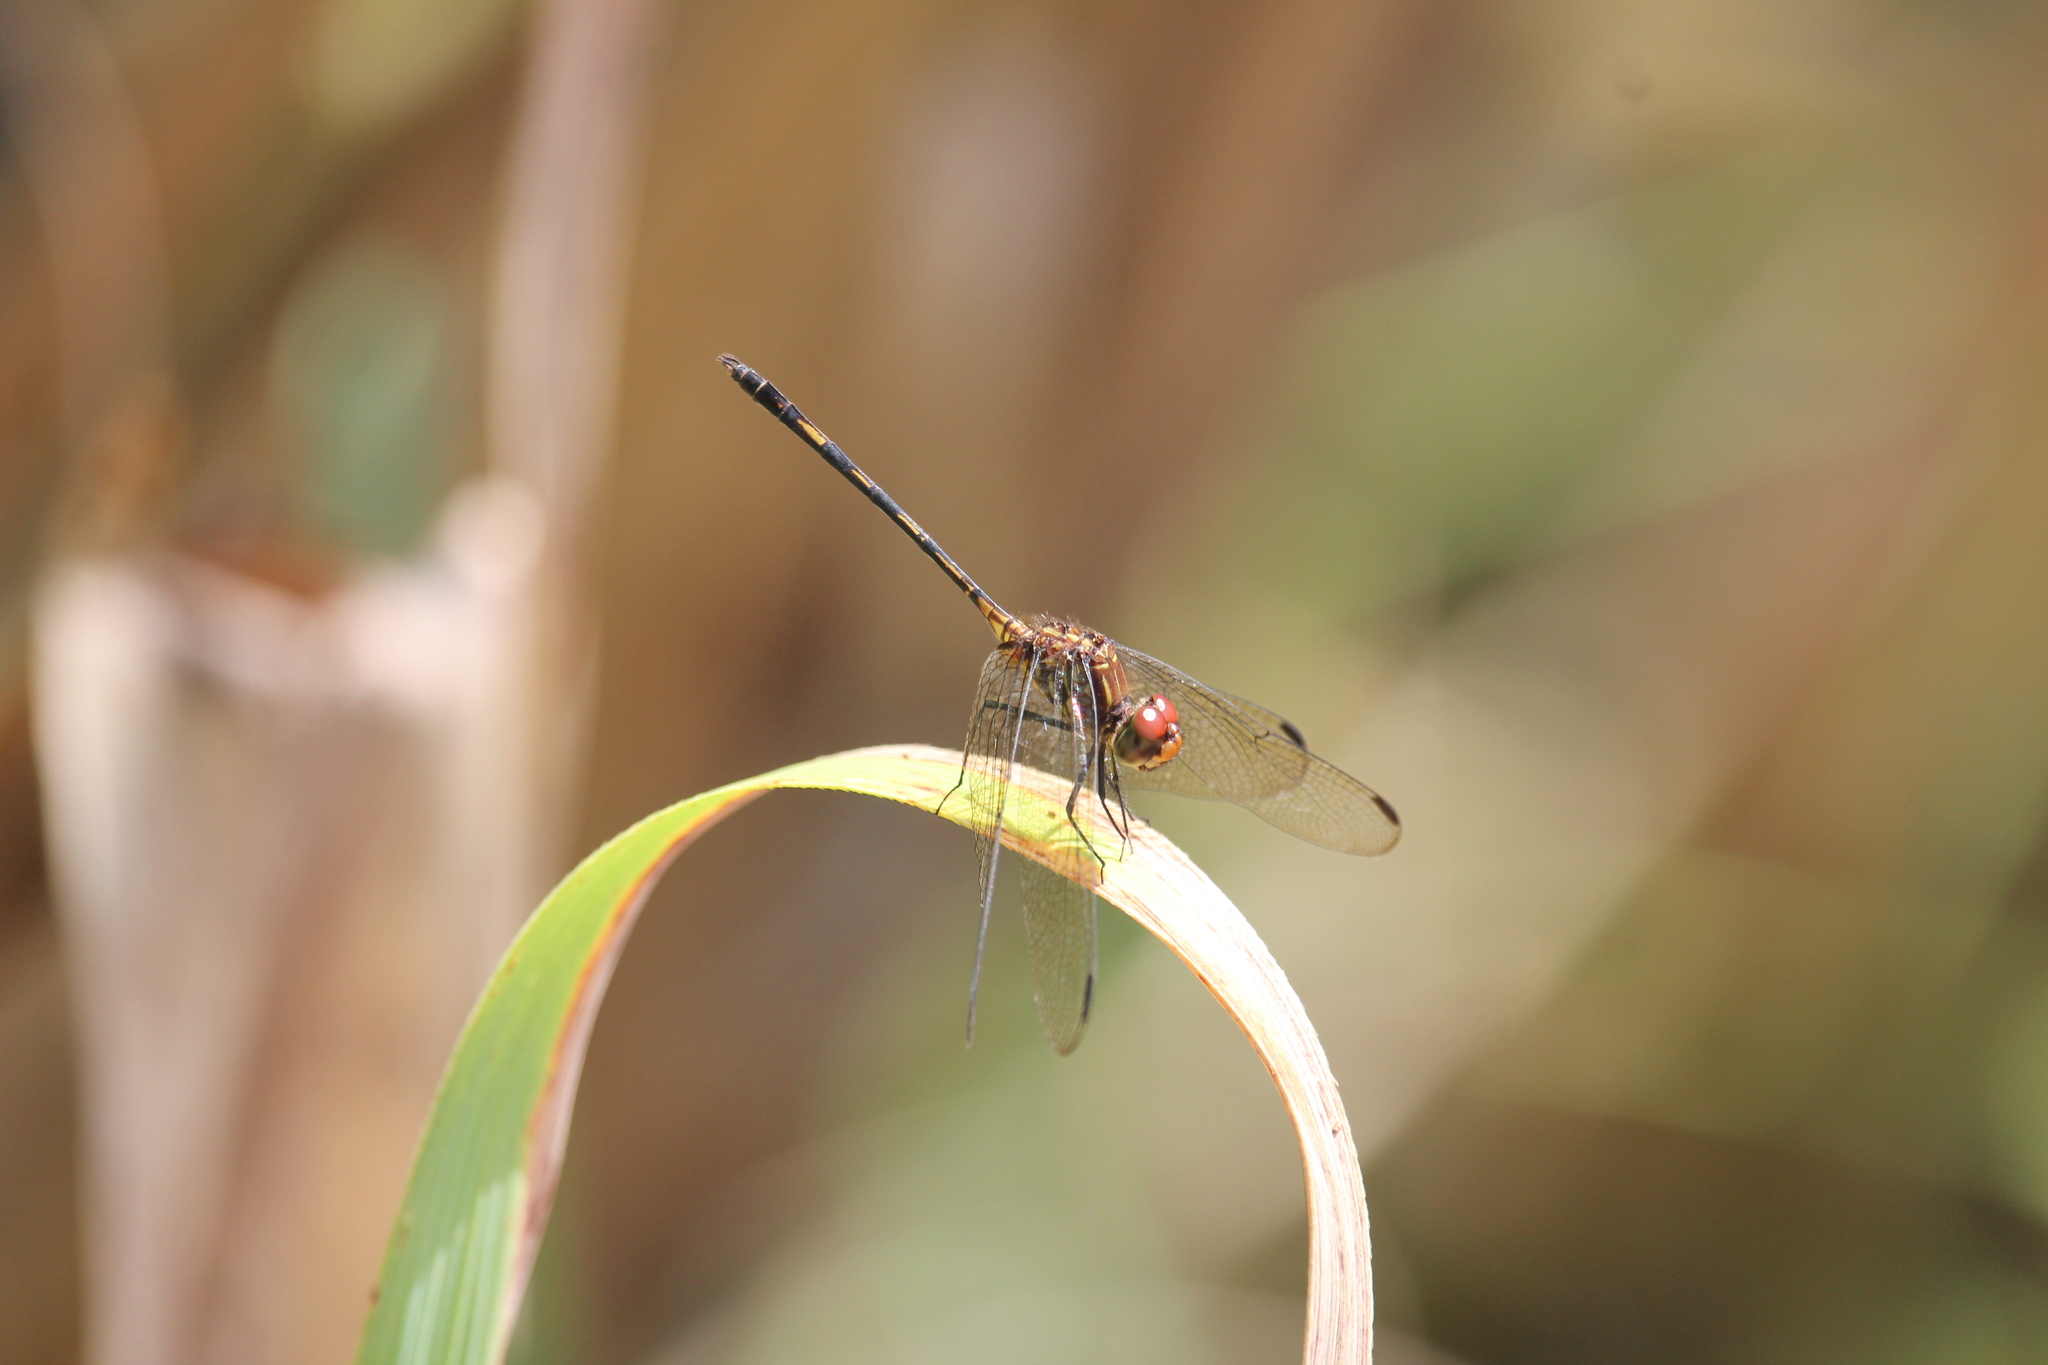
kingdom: Animalia
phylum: Arthropoda
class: Insecta
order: Odonata
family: Libellulidae
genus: Dythemis
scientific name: Dythemis sterilis
